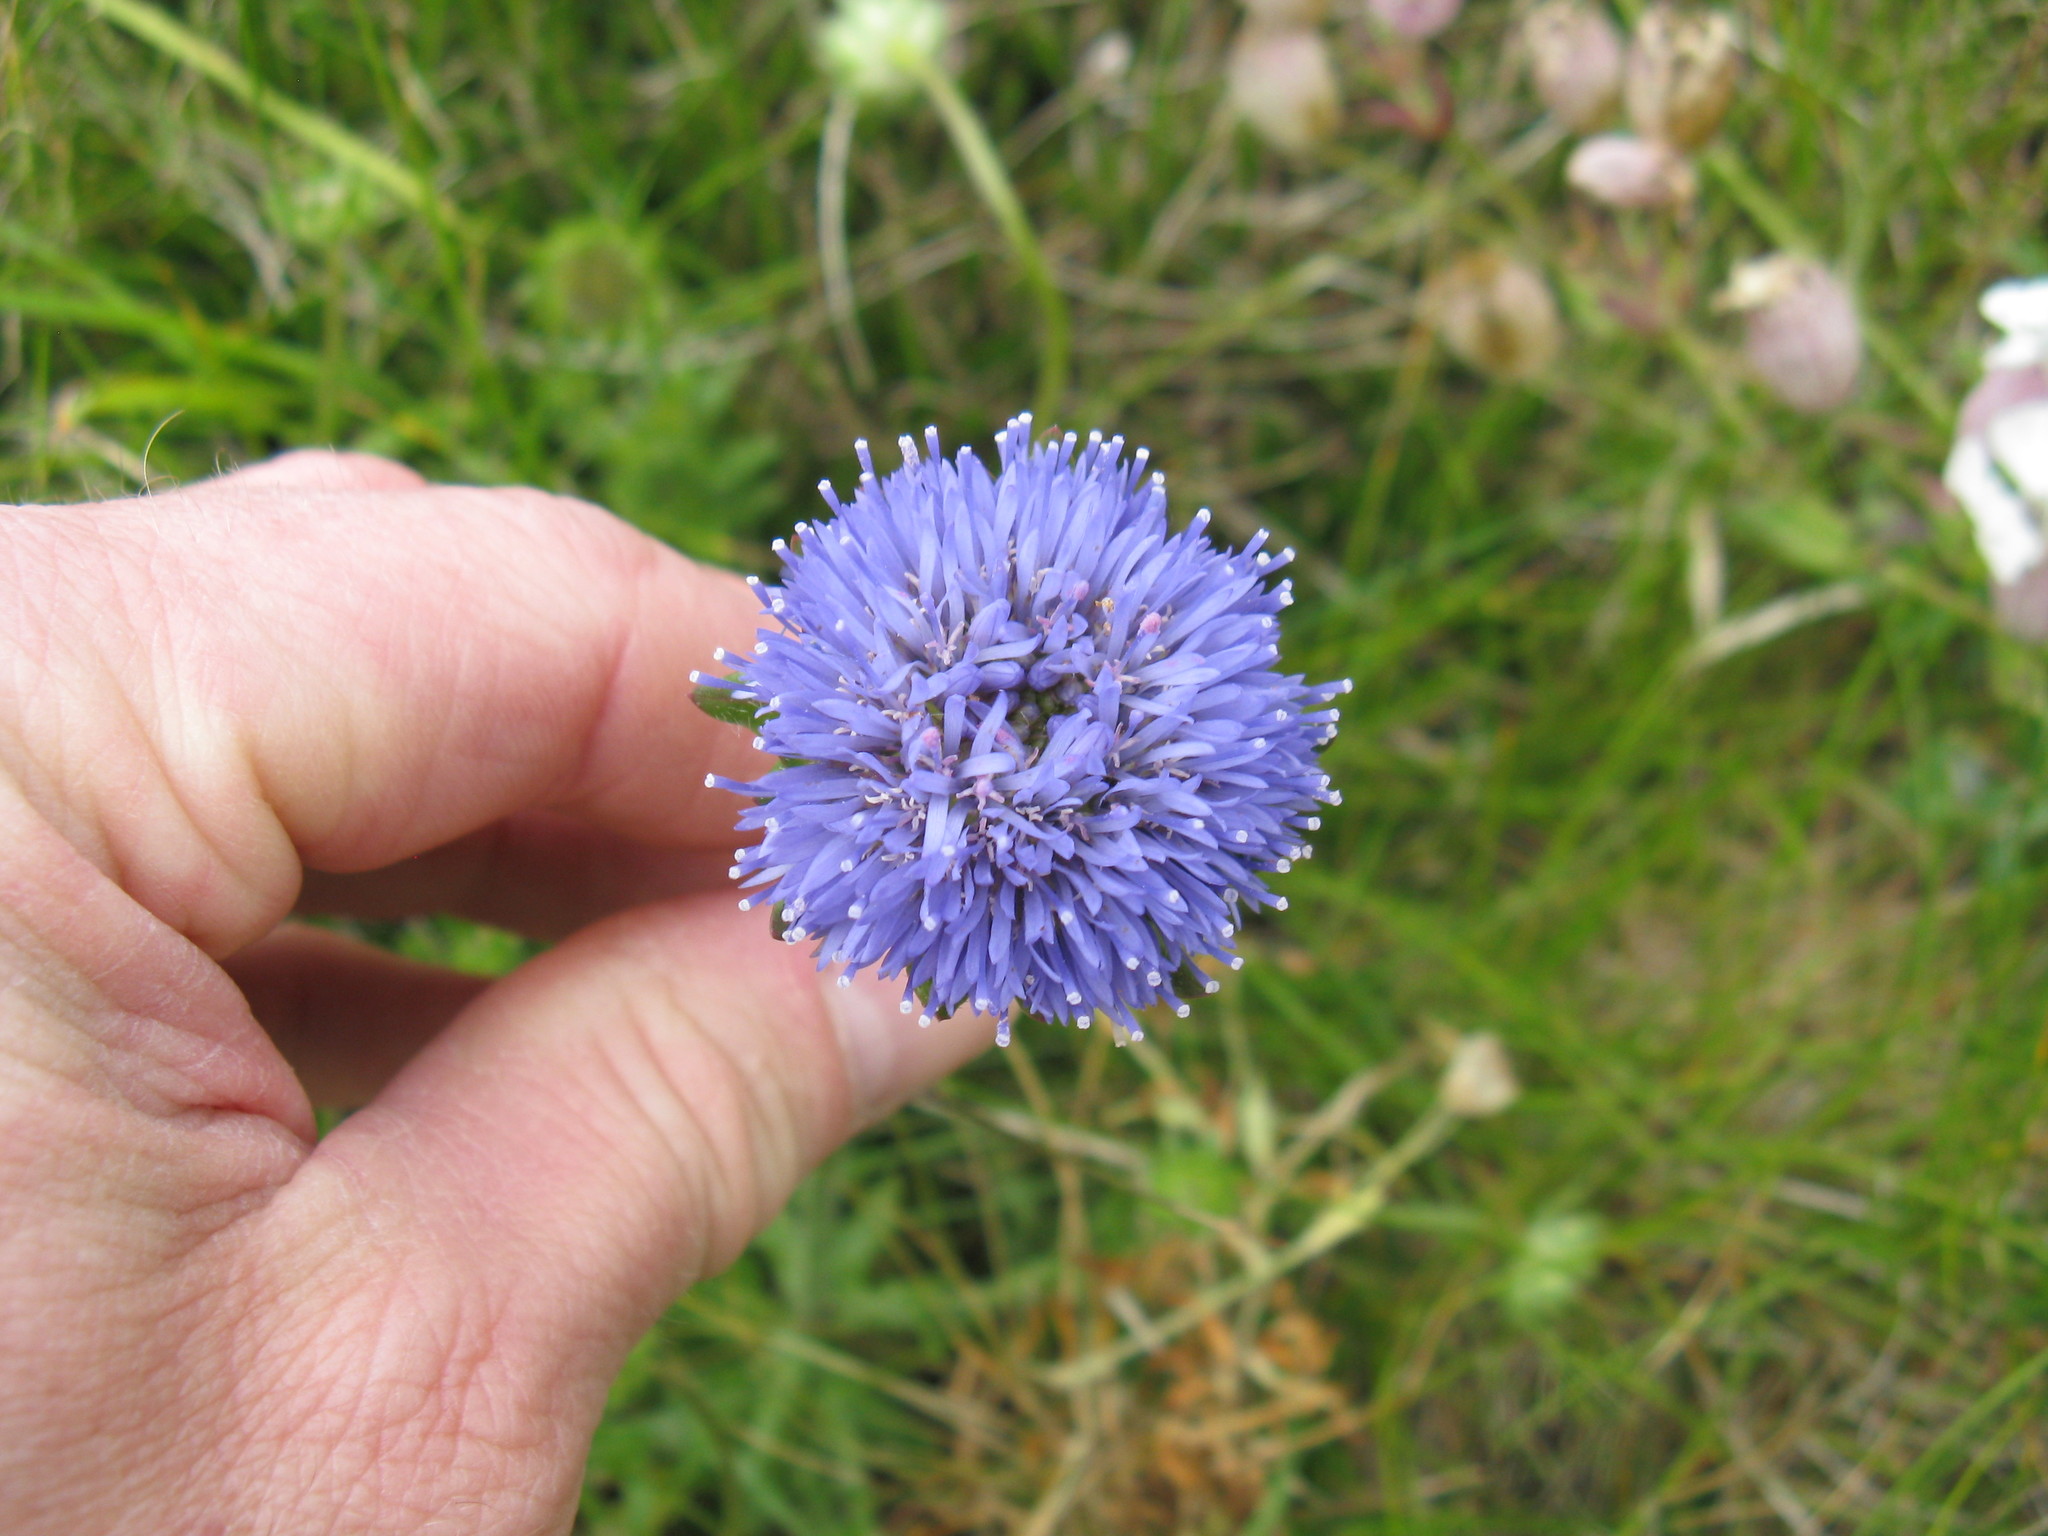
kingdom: Plantae
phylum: Tracheophyta
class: Magnoliopsida
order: Asterales
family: Campanulaceae
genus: Jasione
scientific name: Jasione montana
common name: Sheep's-bit
